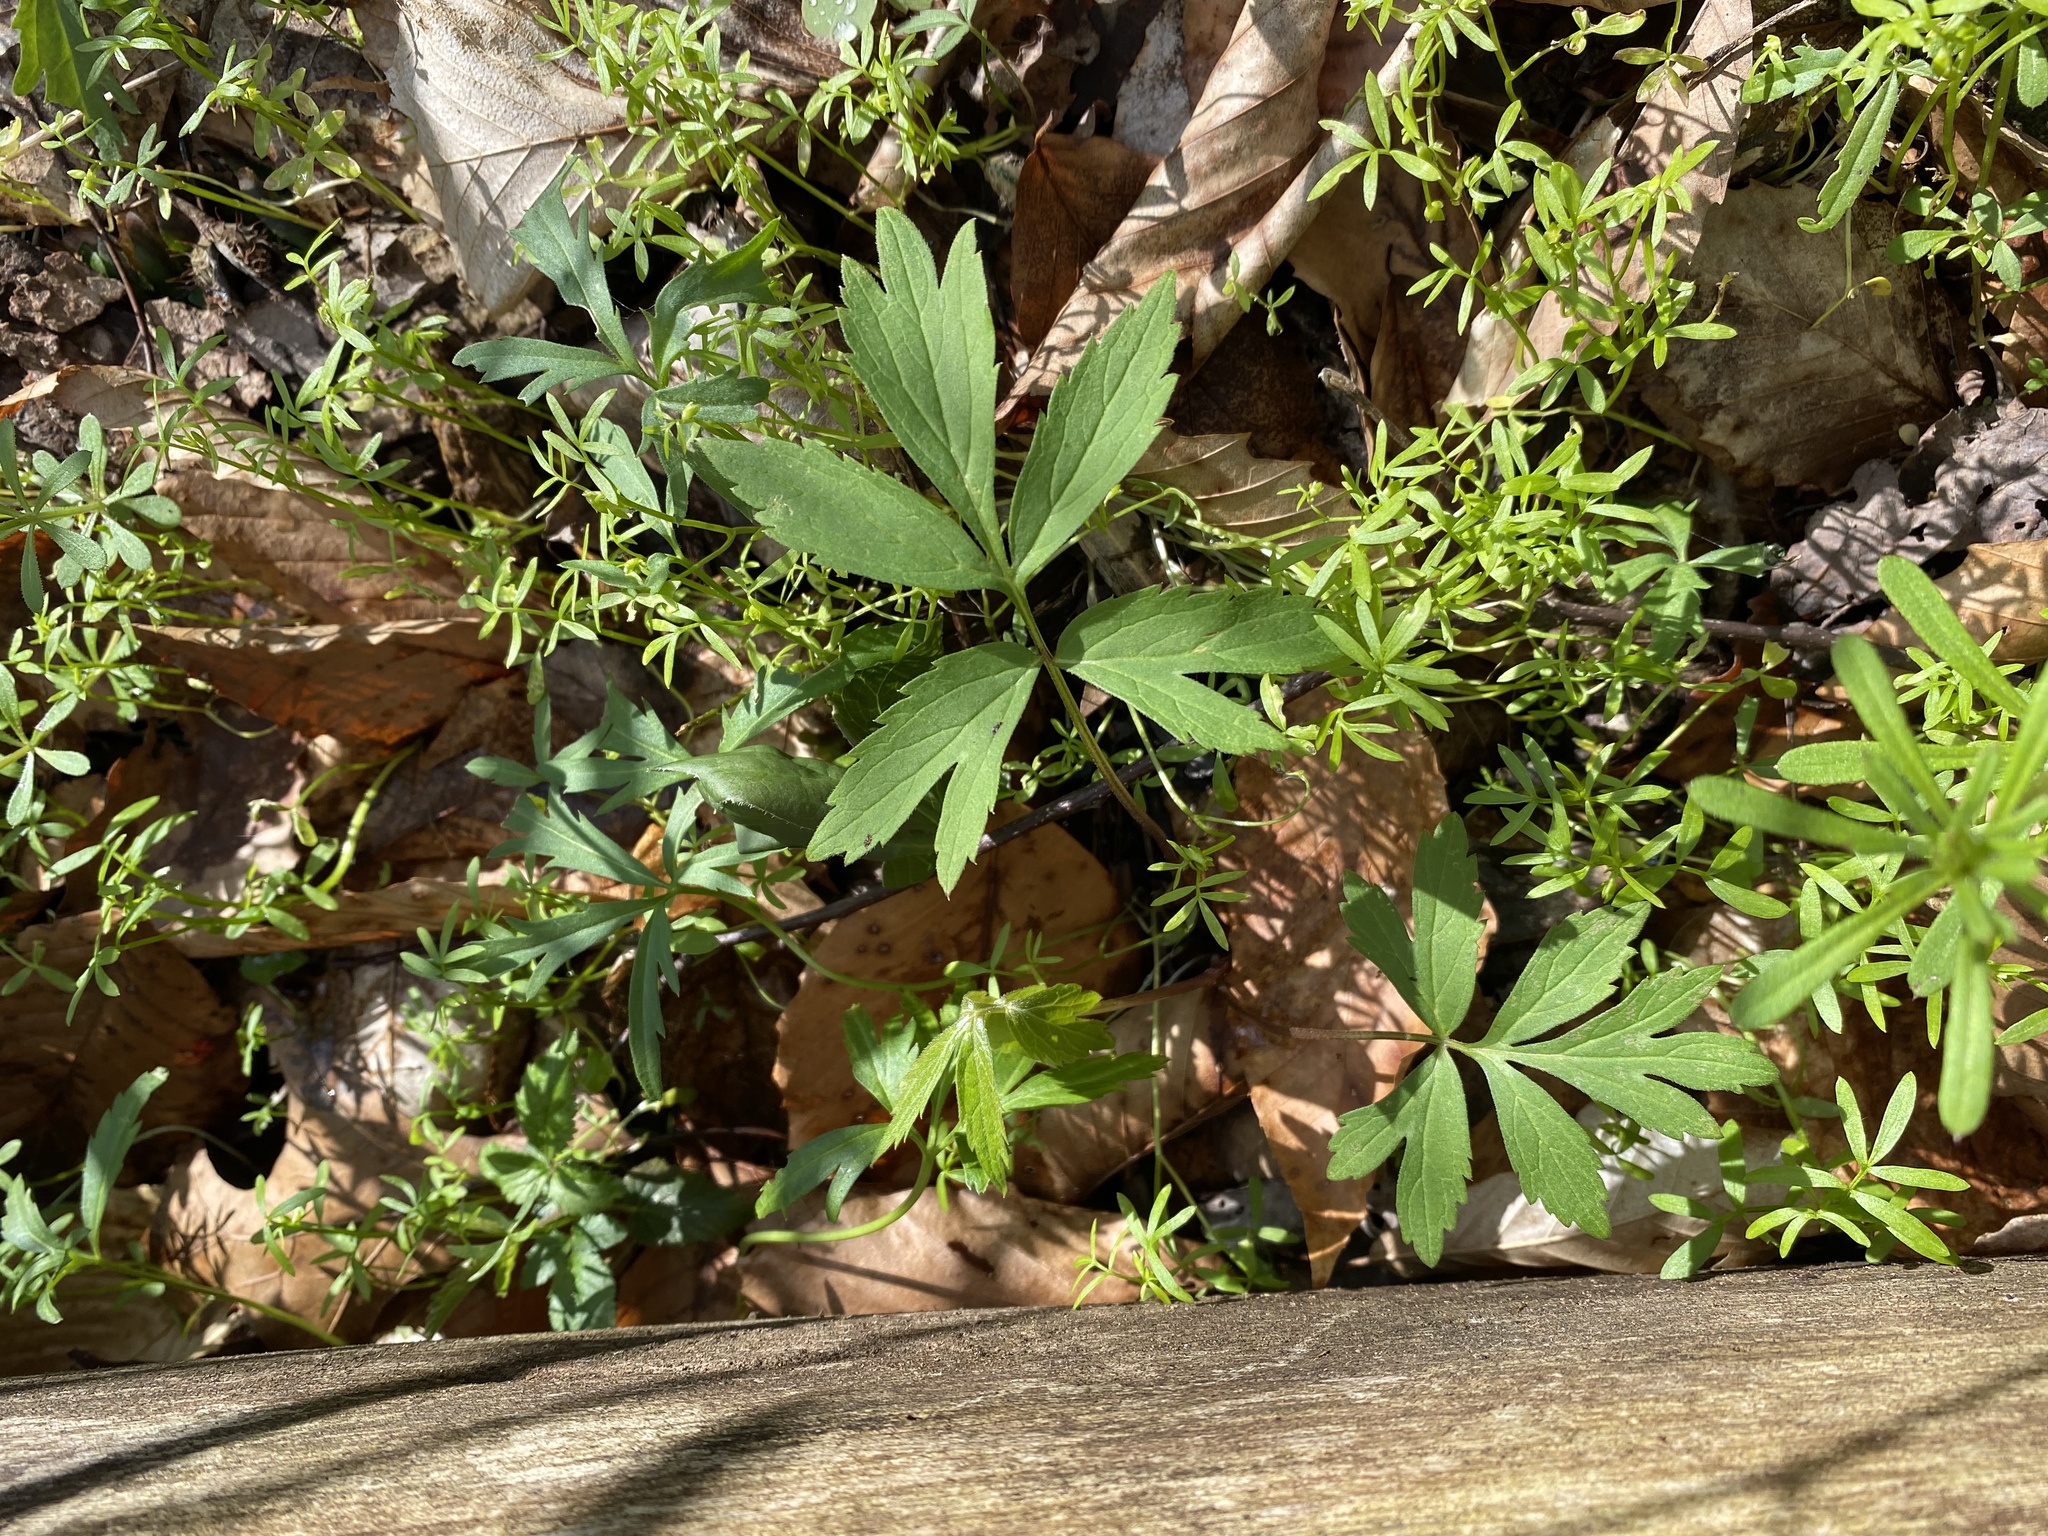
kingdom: Plantae
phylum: Tracheophyta
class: Magnoliopsida
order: Boraginales
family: Hydrophyllaceae
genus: Hydrophyllum
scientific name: Hydrophyllum virginianum
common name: Virginia waterleaf
